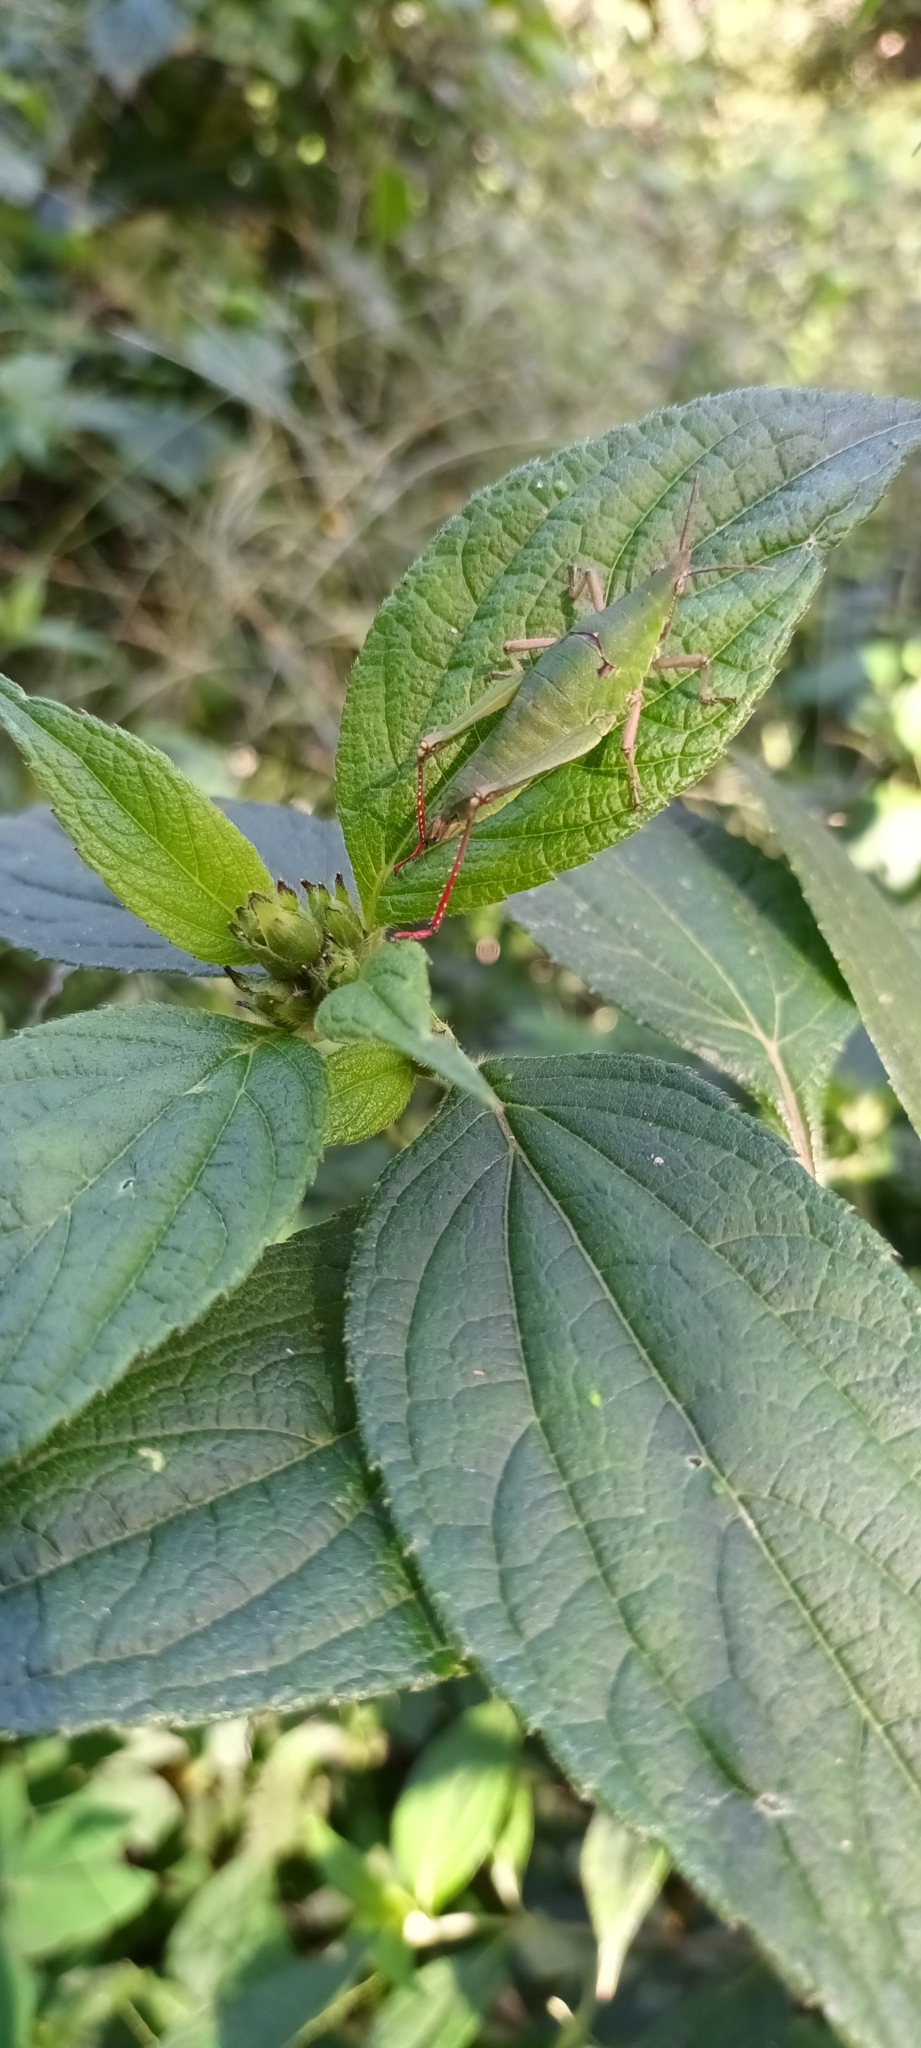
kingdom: Animalia
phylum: Arthropoda
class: Insecta
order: Orthoptera
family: Pyrgomorphidae
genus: Prosphena
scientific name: Prosphena scudderi
